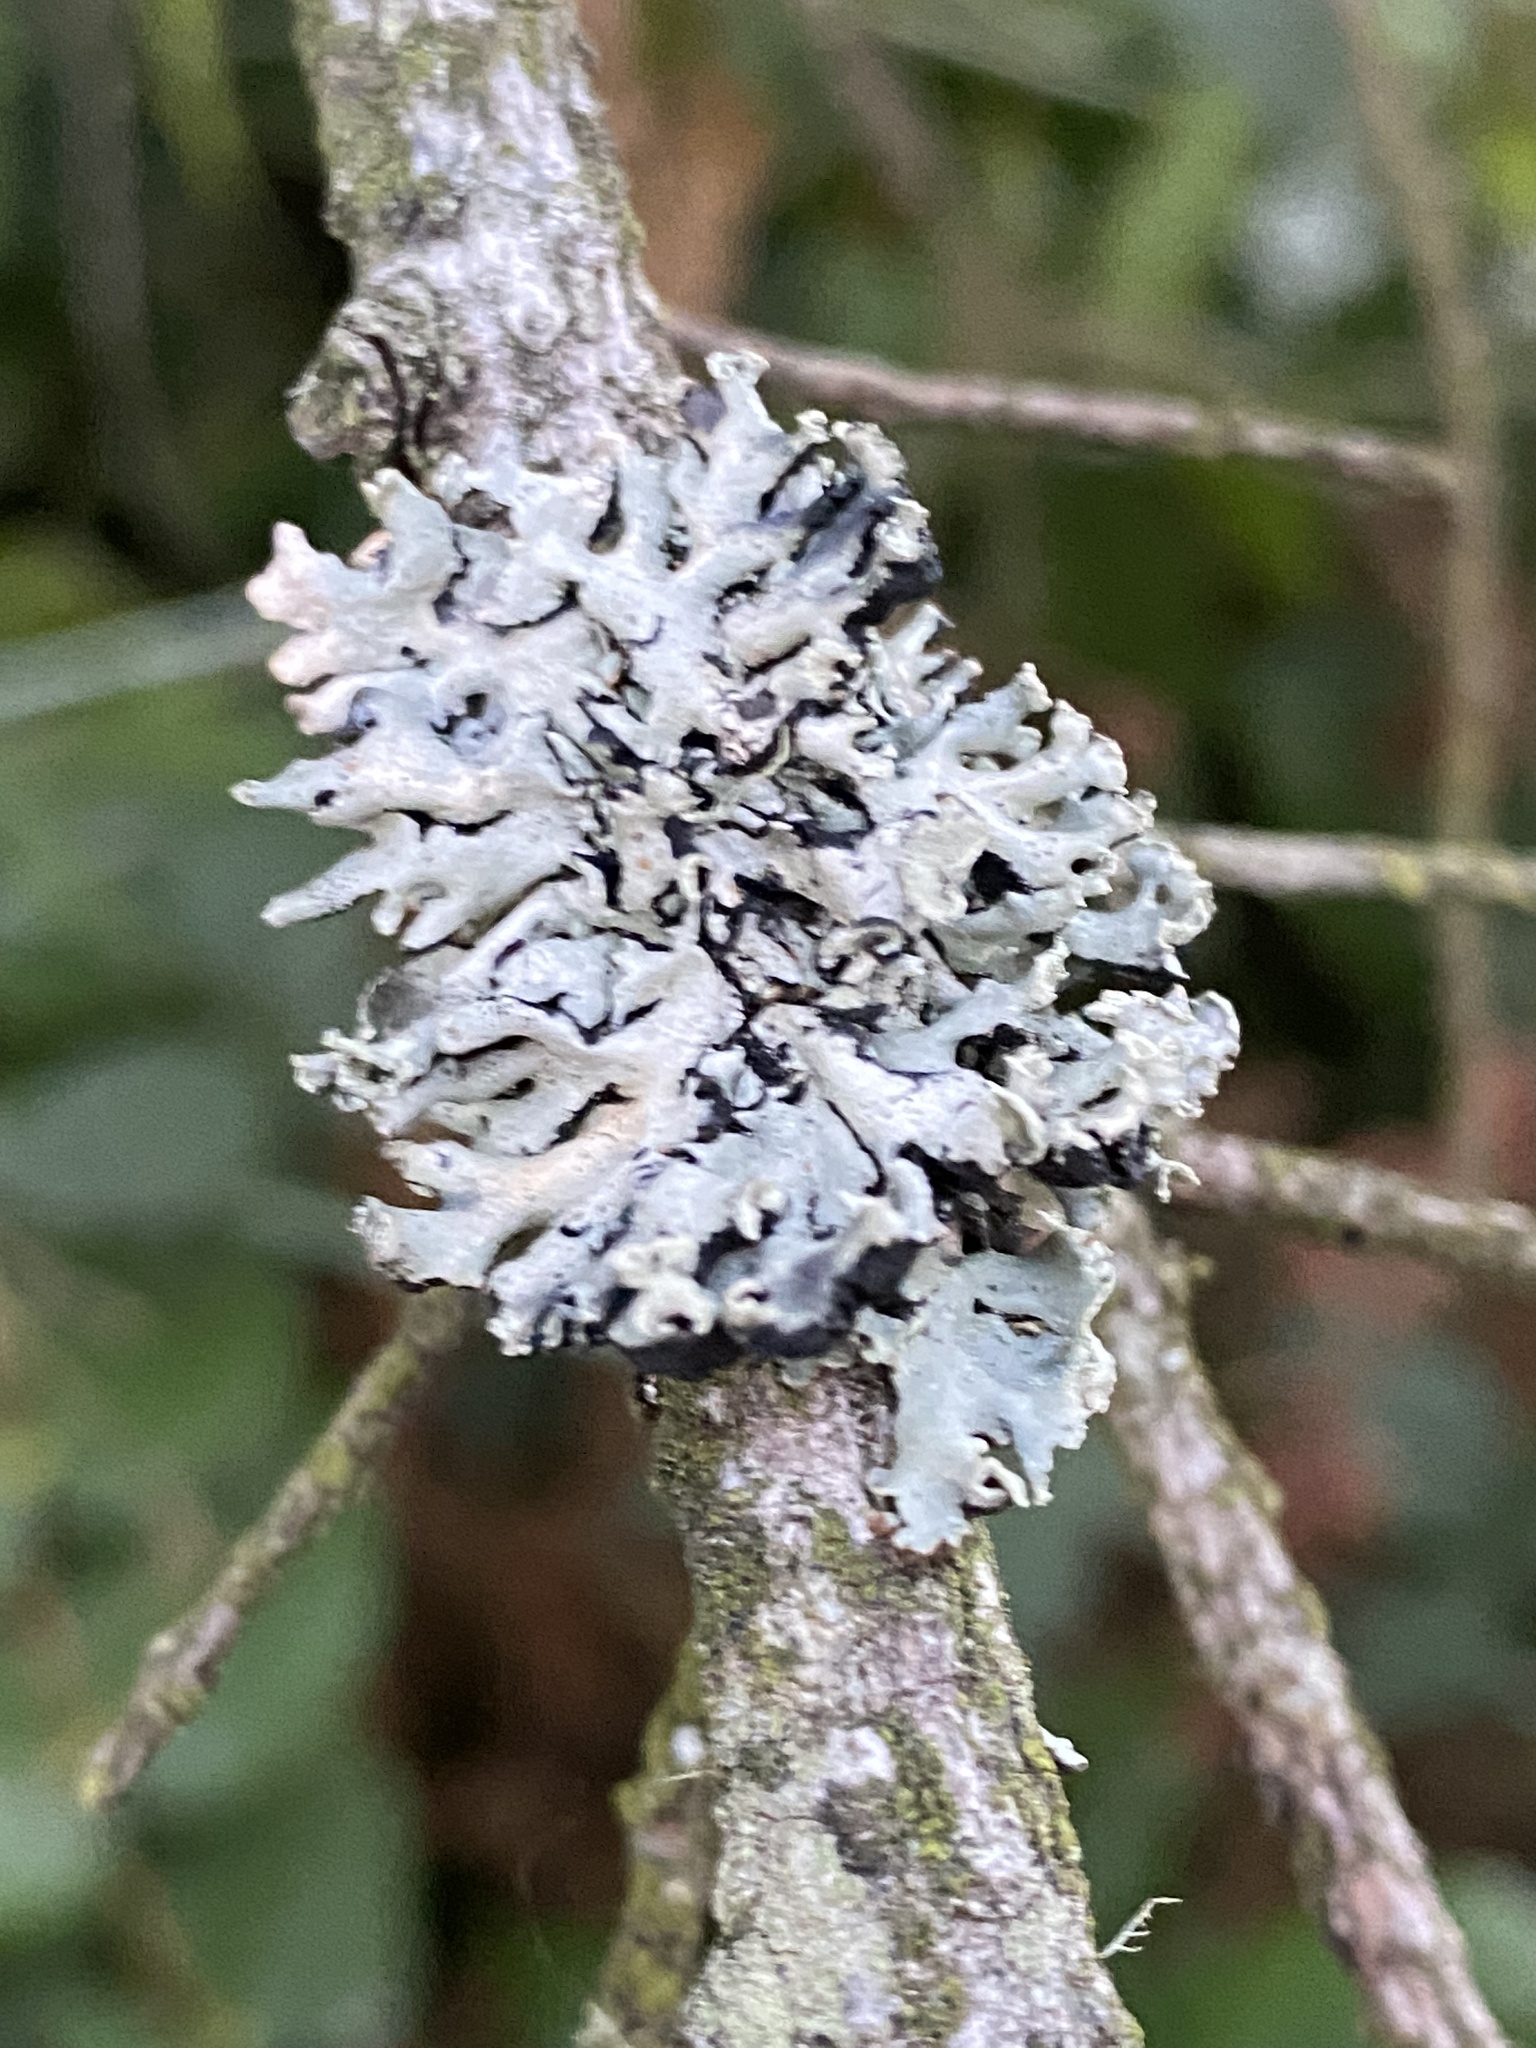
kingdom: Fungi
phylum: Ascomycota
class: Lecanoromycetes
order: Lecanorales
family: Parmeliaceae
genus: Hypogymnia
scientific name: Hypogymnia physodes
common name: Dark crottle
